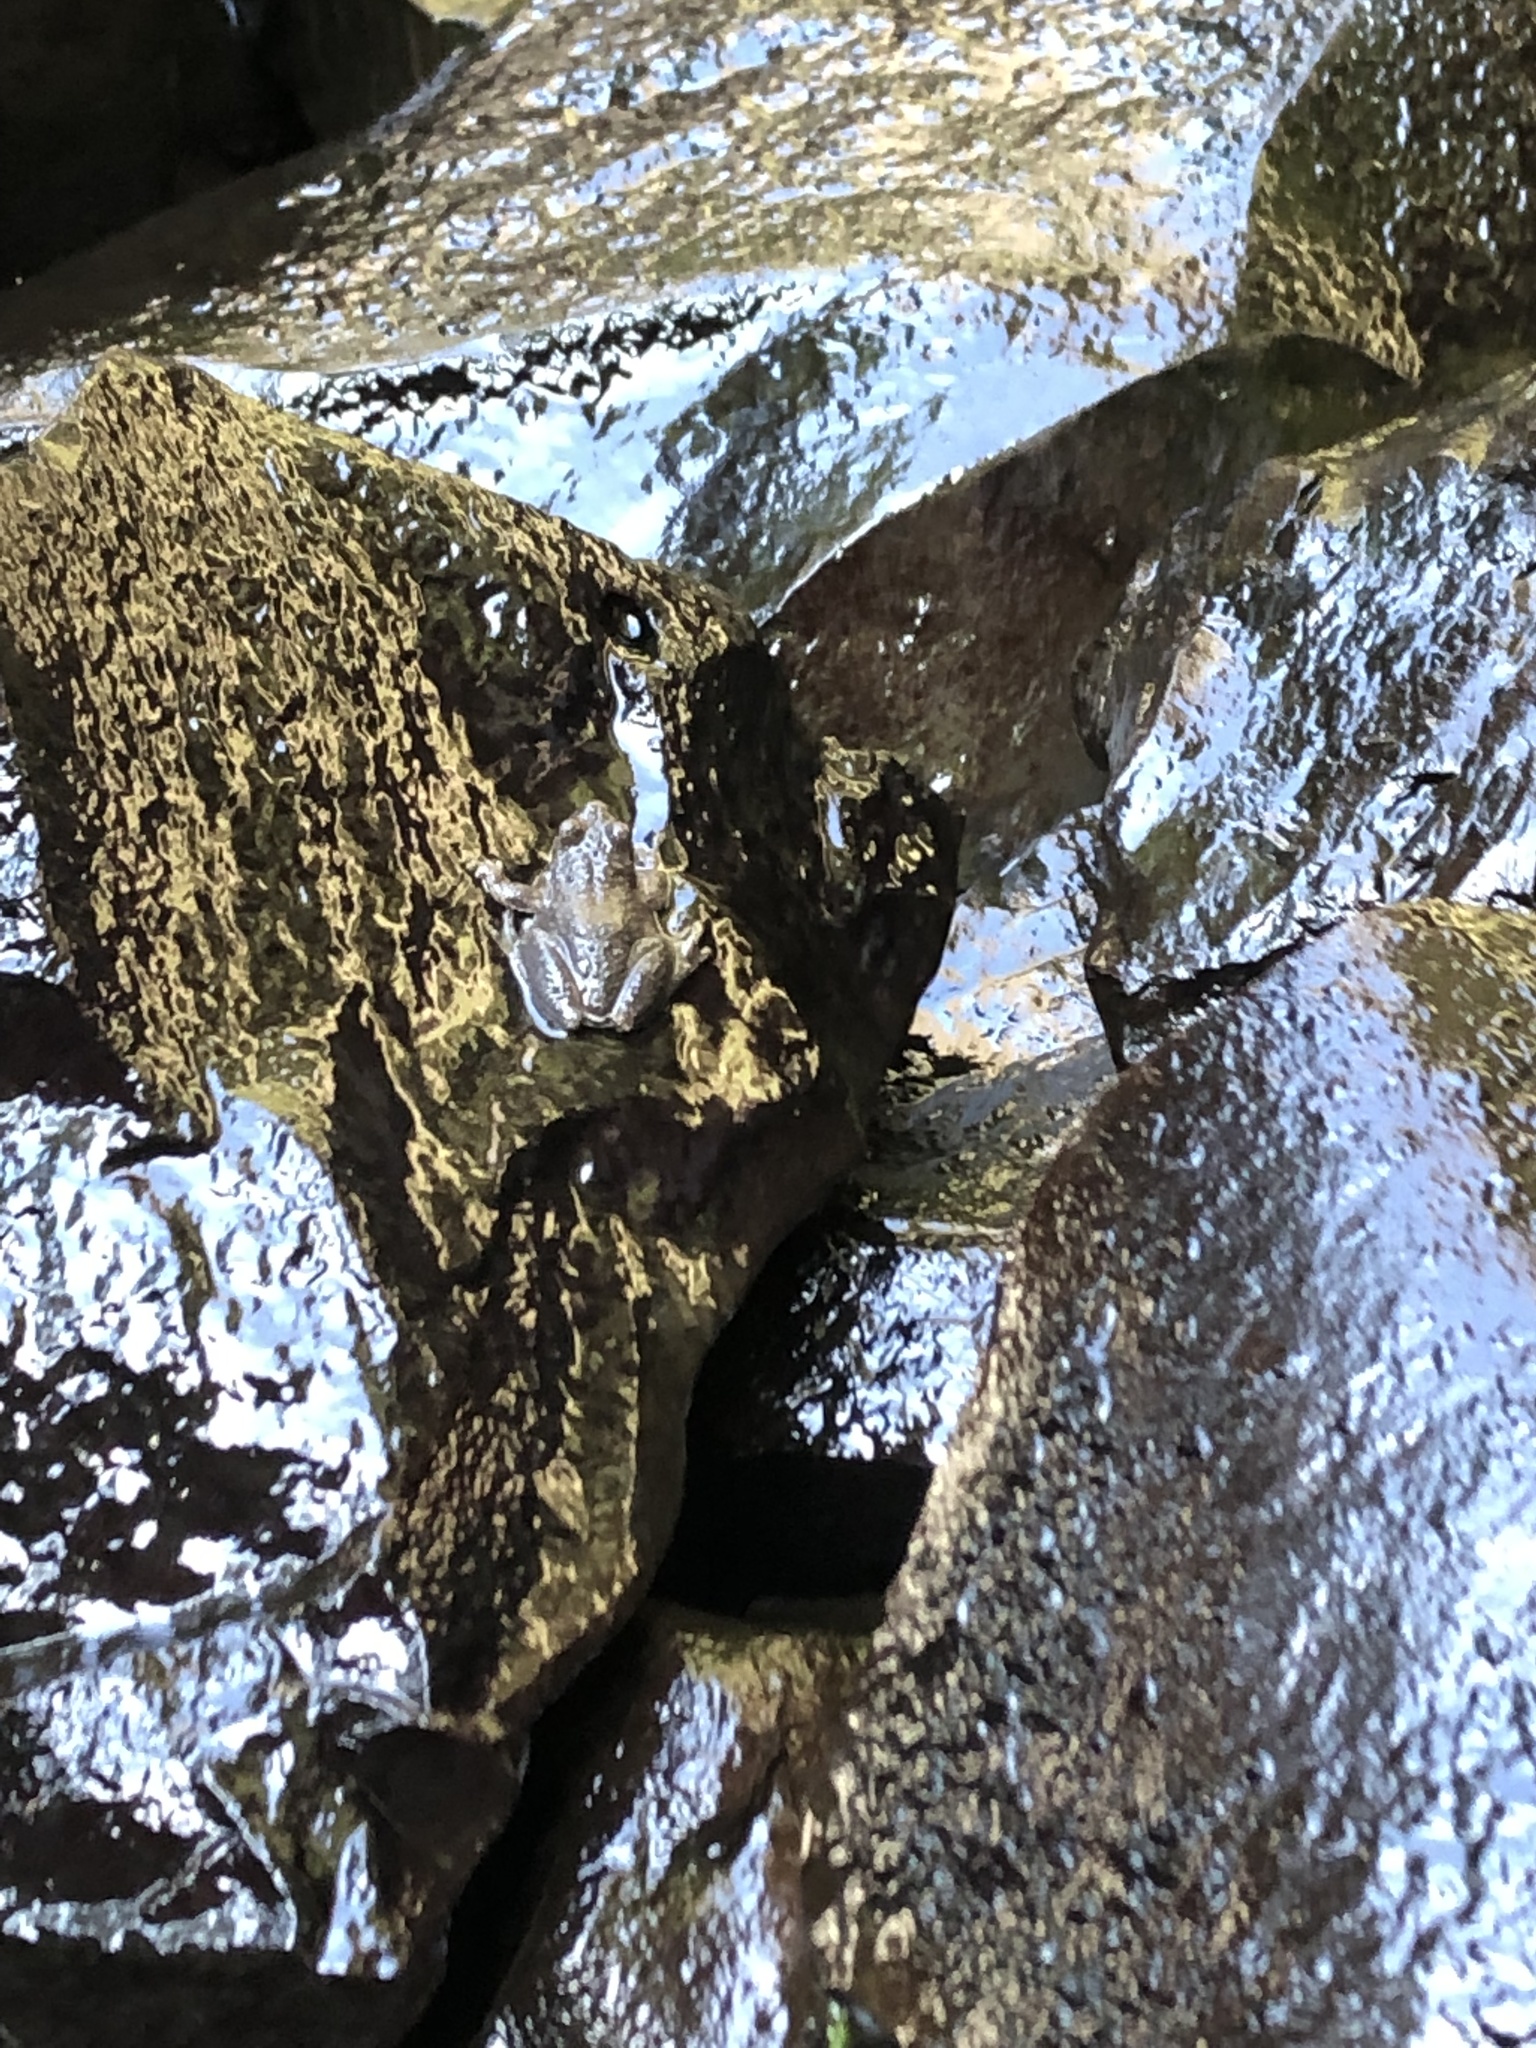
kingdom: Animalia
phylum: Chordata
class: Amphibia
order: Anura
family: Hylidae
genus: Pseudacris
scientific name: Pseudacris regilla
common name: Pacific chorus frog
